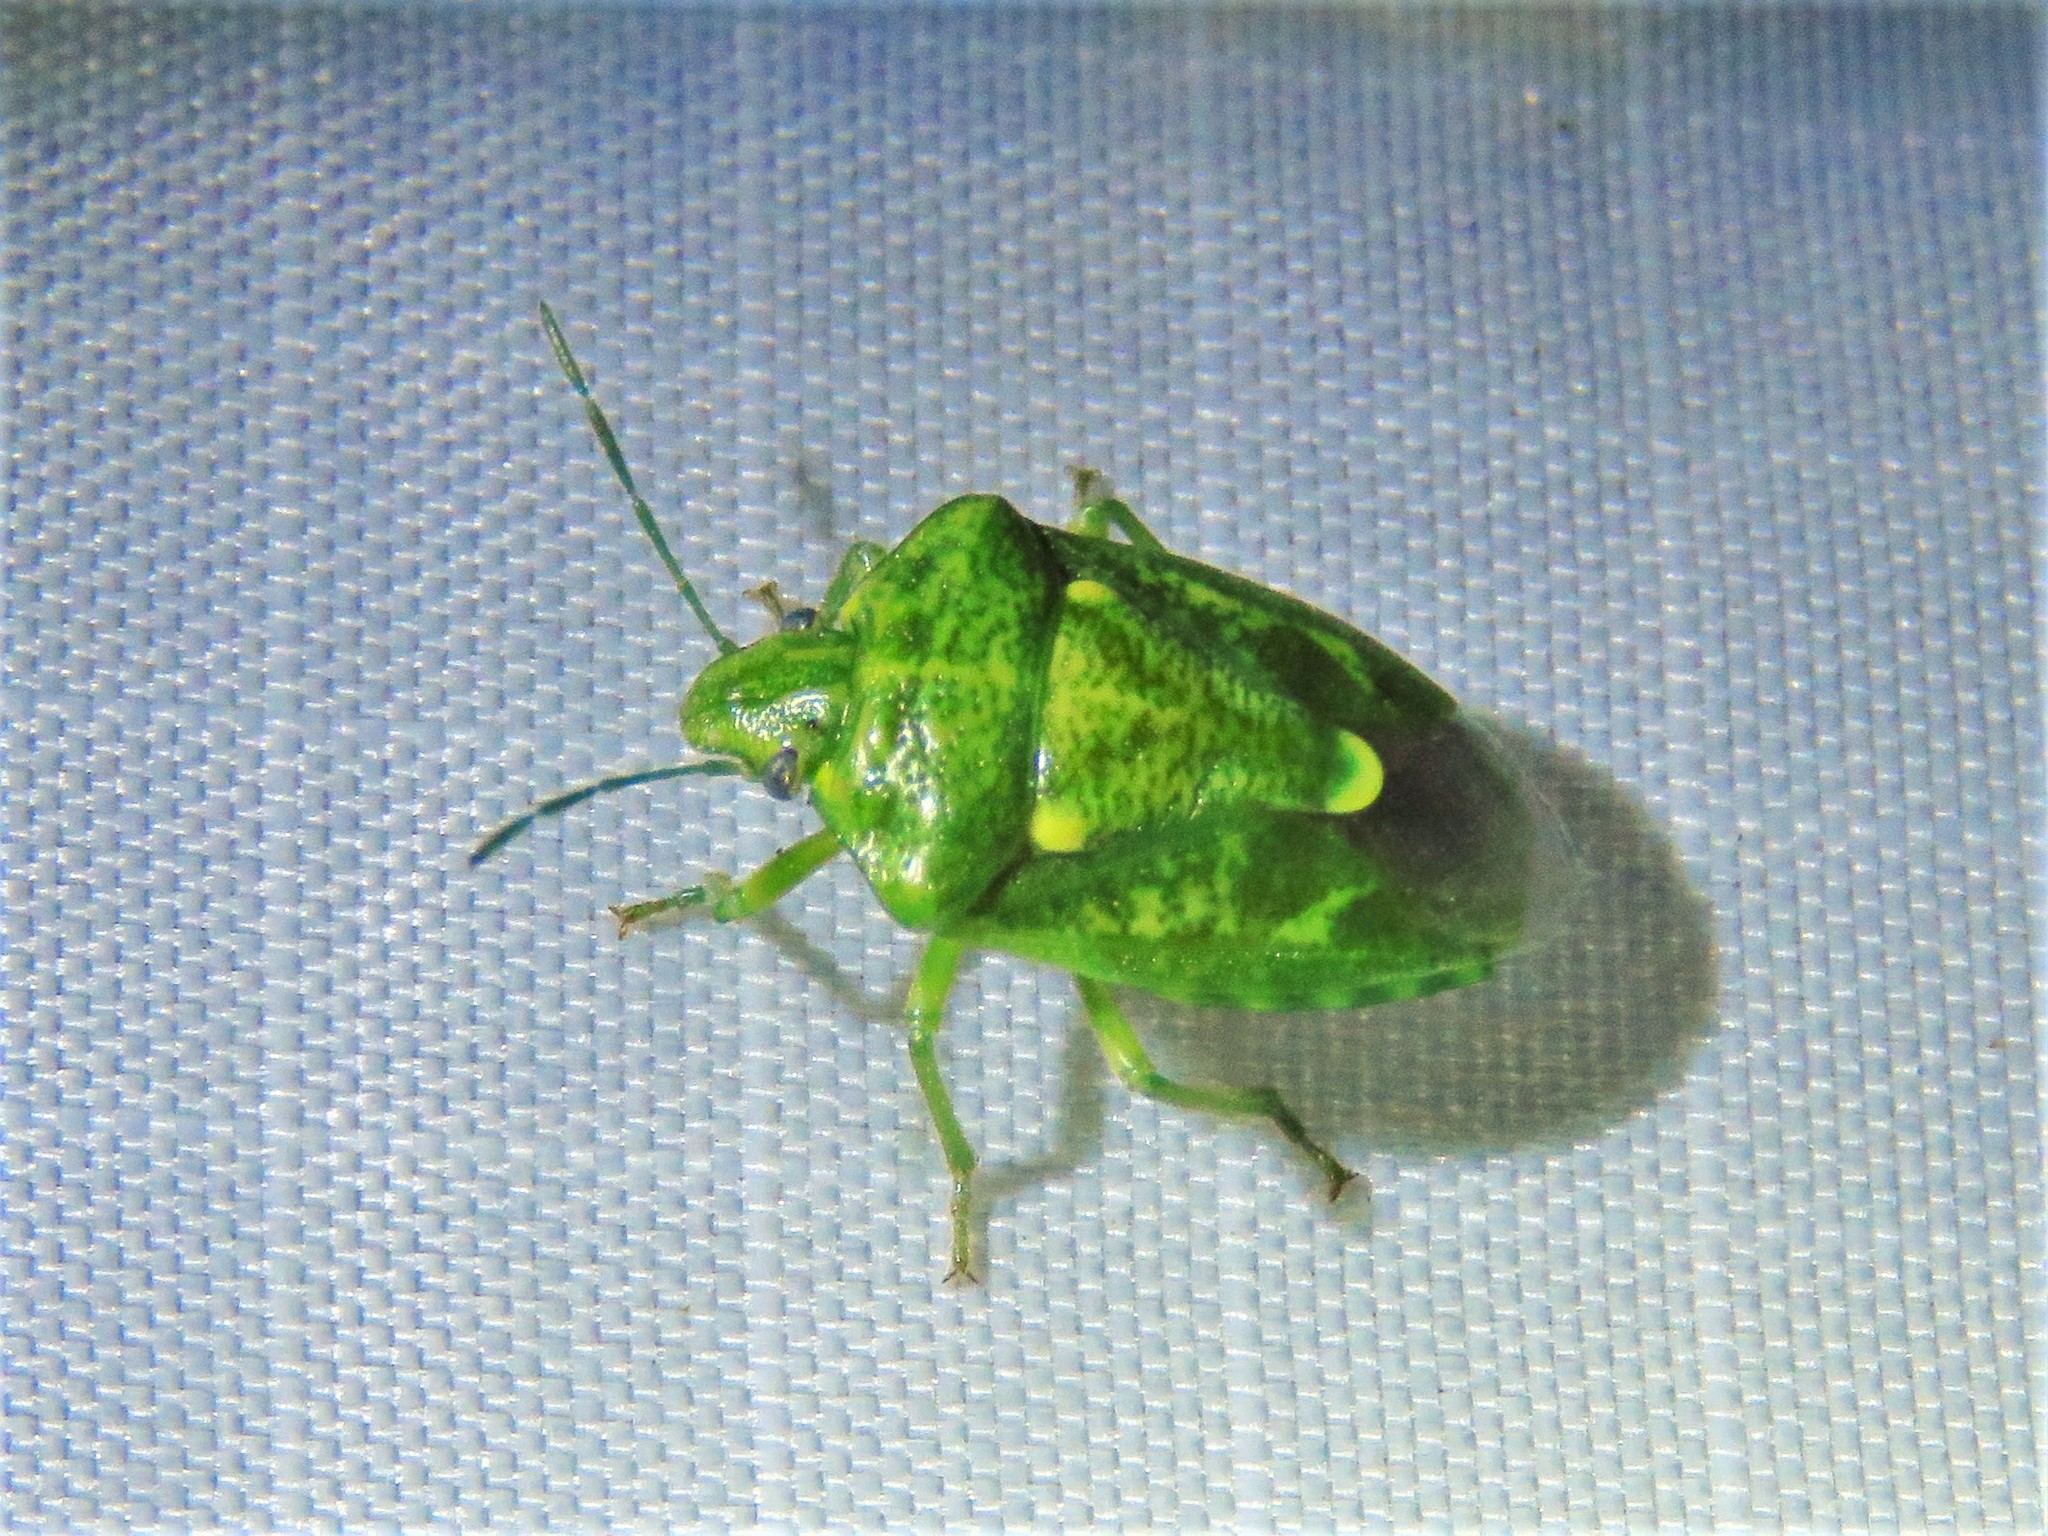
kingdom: Animalia
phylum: Arthropoda
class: Insecta
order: Hemiptera
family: Pentatomidae
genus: Banasa
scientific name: Banasa euchlora
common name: Cedar berry bug
